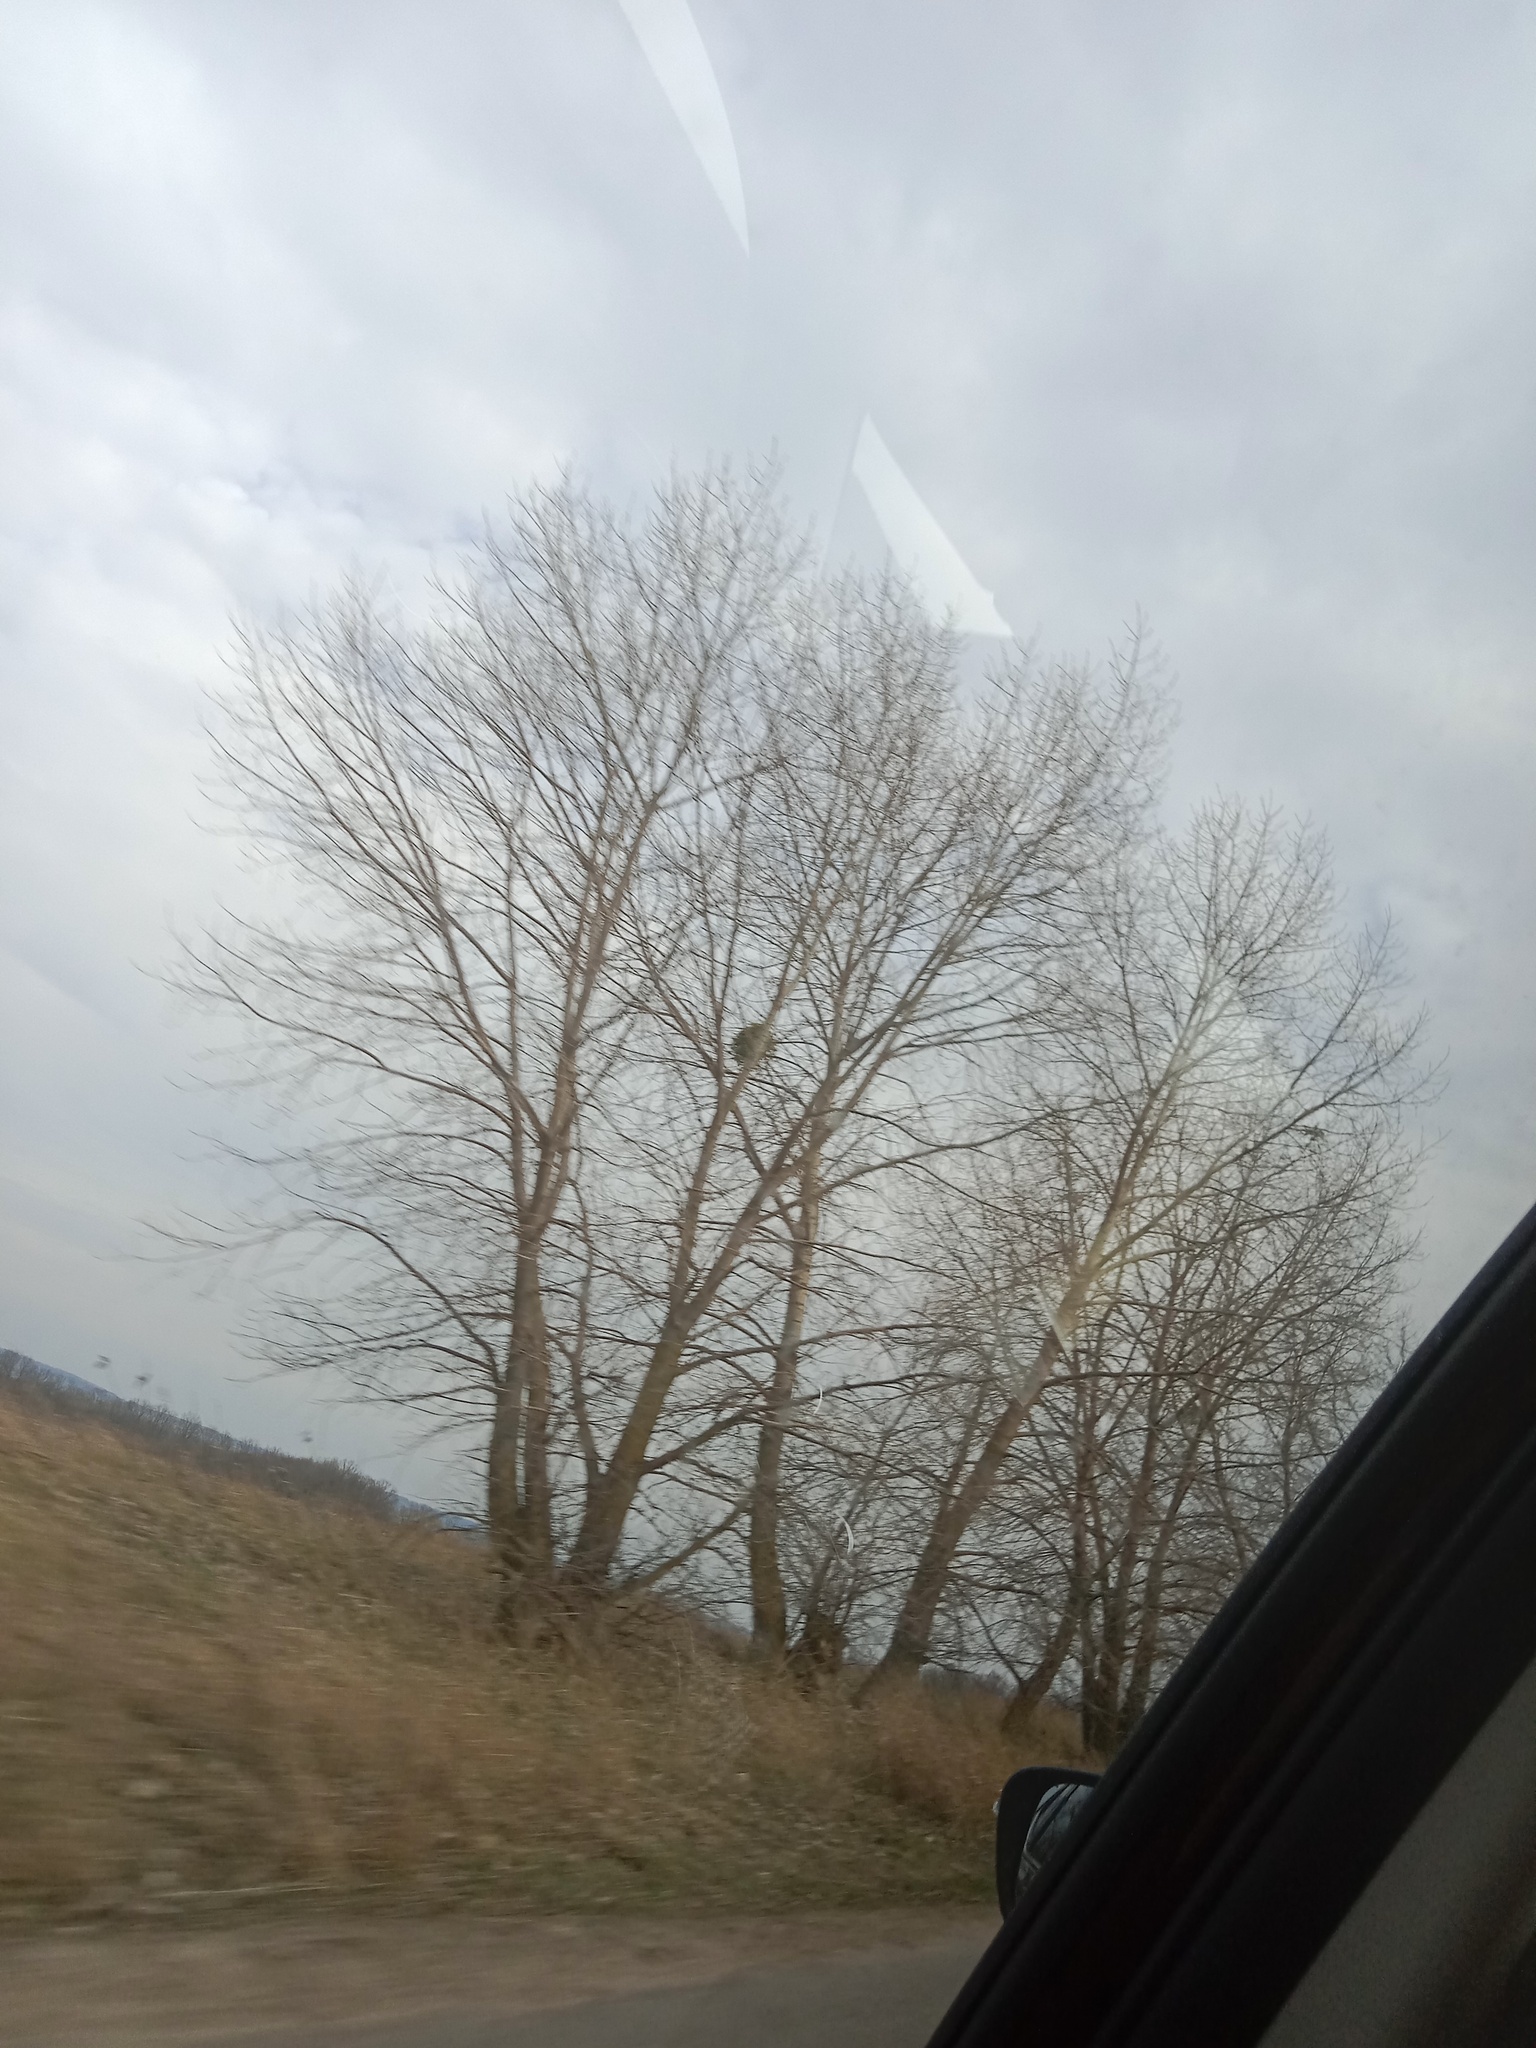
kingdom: Plantae
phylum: Tracheophyta
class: Magnoliopsida
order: Santalales
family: Viscaceae
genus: Viscum
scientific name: Viscum album
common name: Mistletoe
